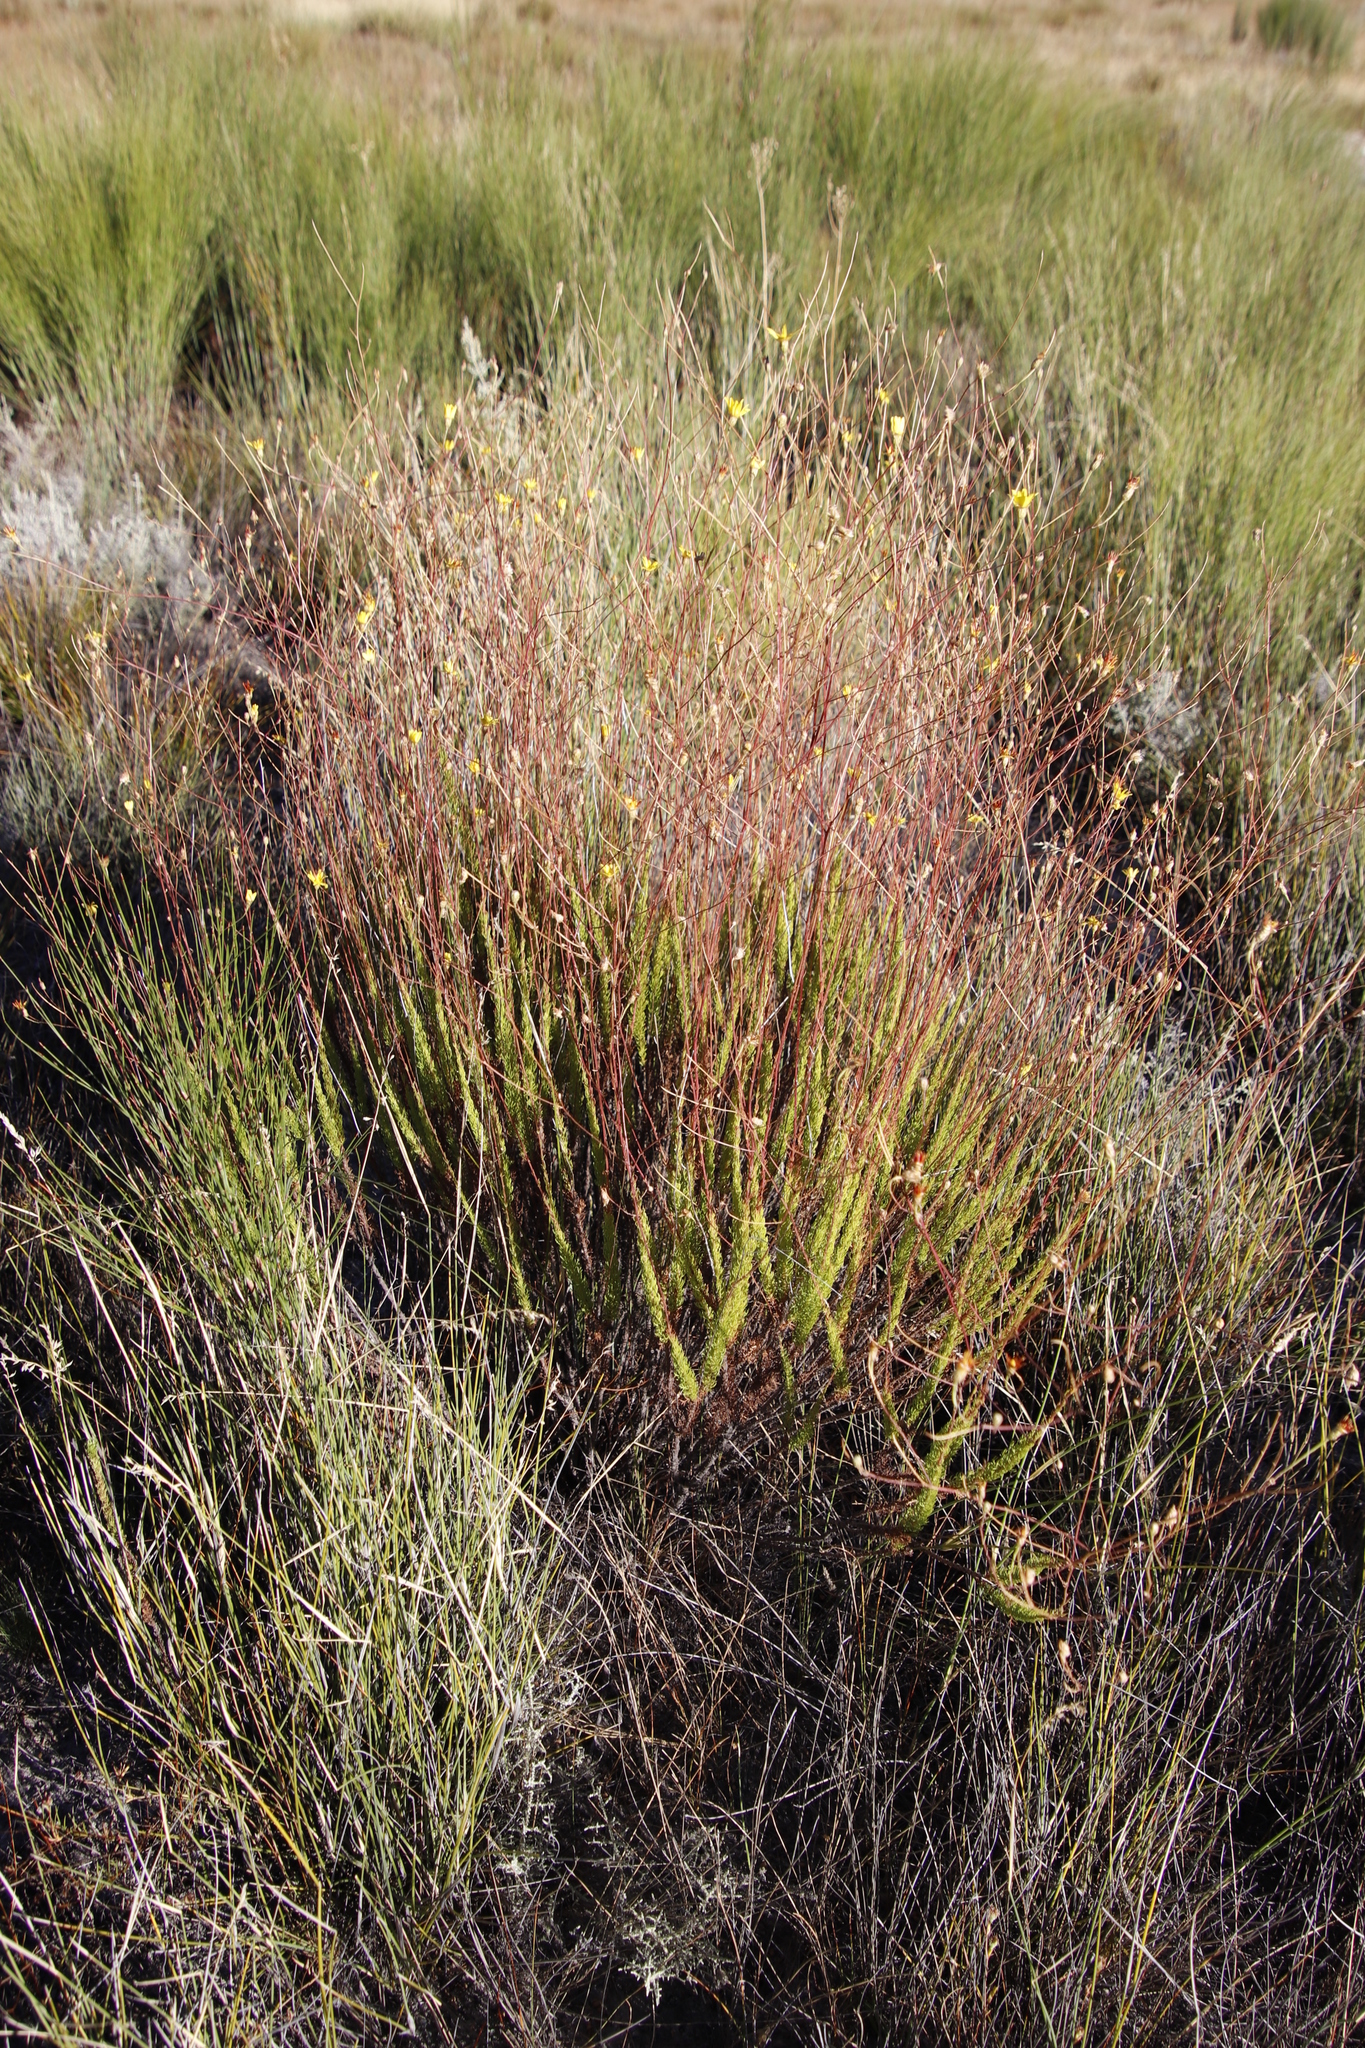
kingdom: Plantae
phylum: Tracheophyta
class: Magnoliopsida
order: Asterales
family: Asteraceae
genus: Ursinia
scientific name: Ursinia punctata
